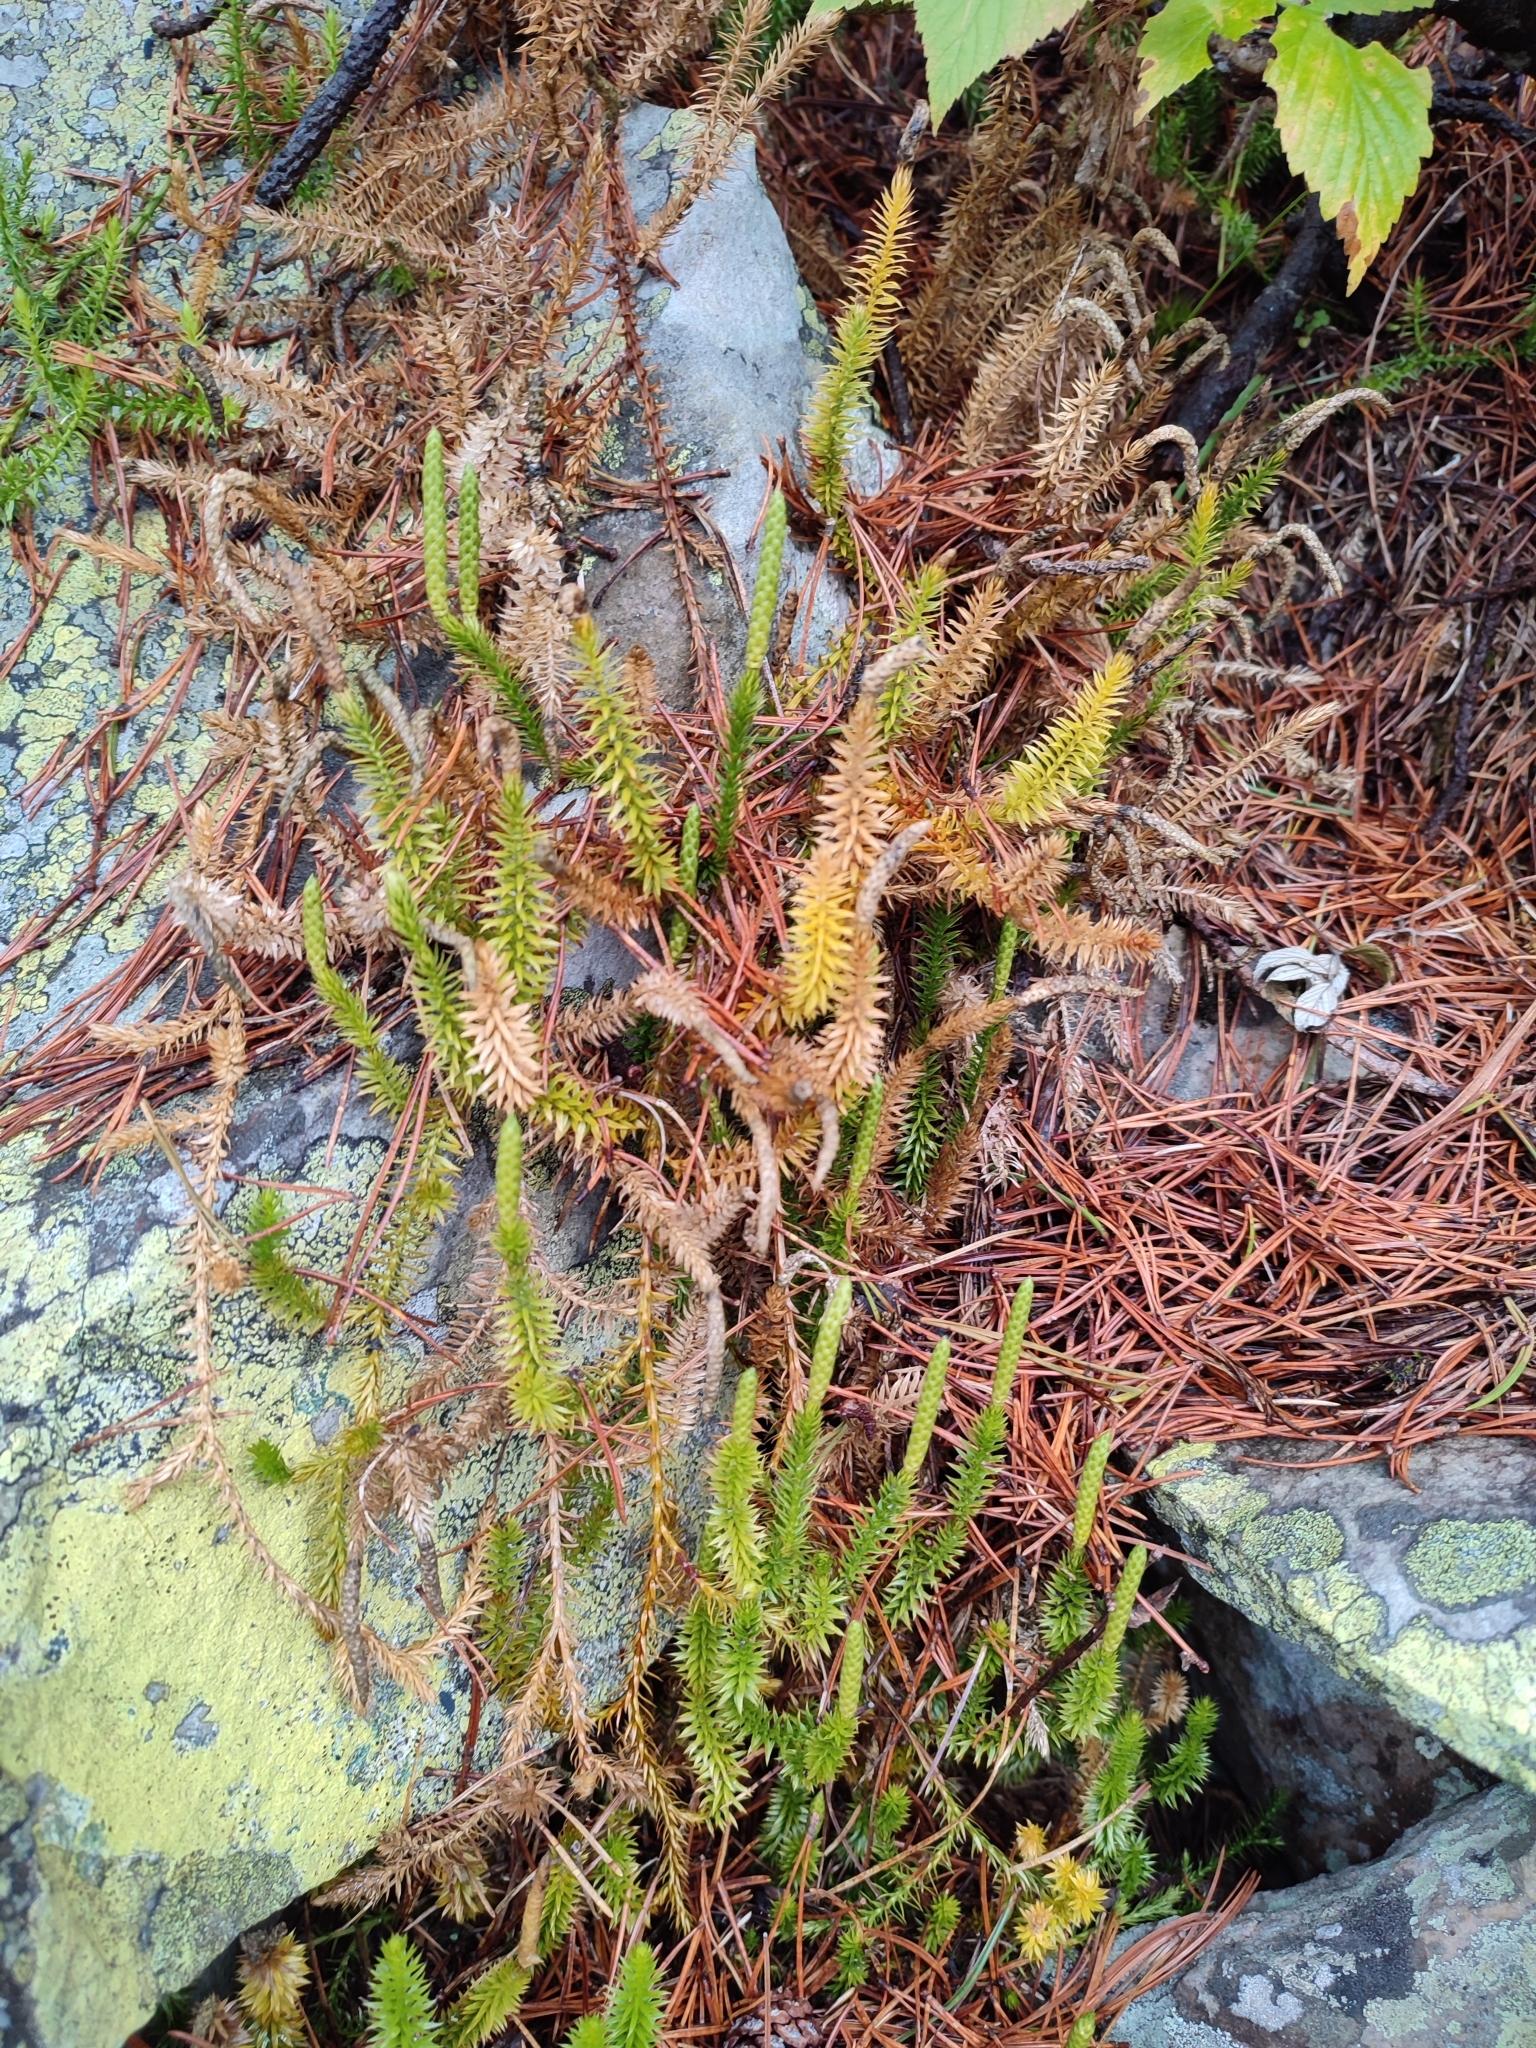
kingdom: Plantae
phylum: Tracheophyta
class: Lycopodiopsida
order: Lycopodiales
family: Lycopodiaceae
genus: Spinulum
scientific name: Spinulum annotinum
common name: Interrupted club-moss
